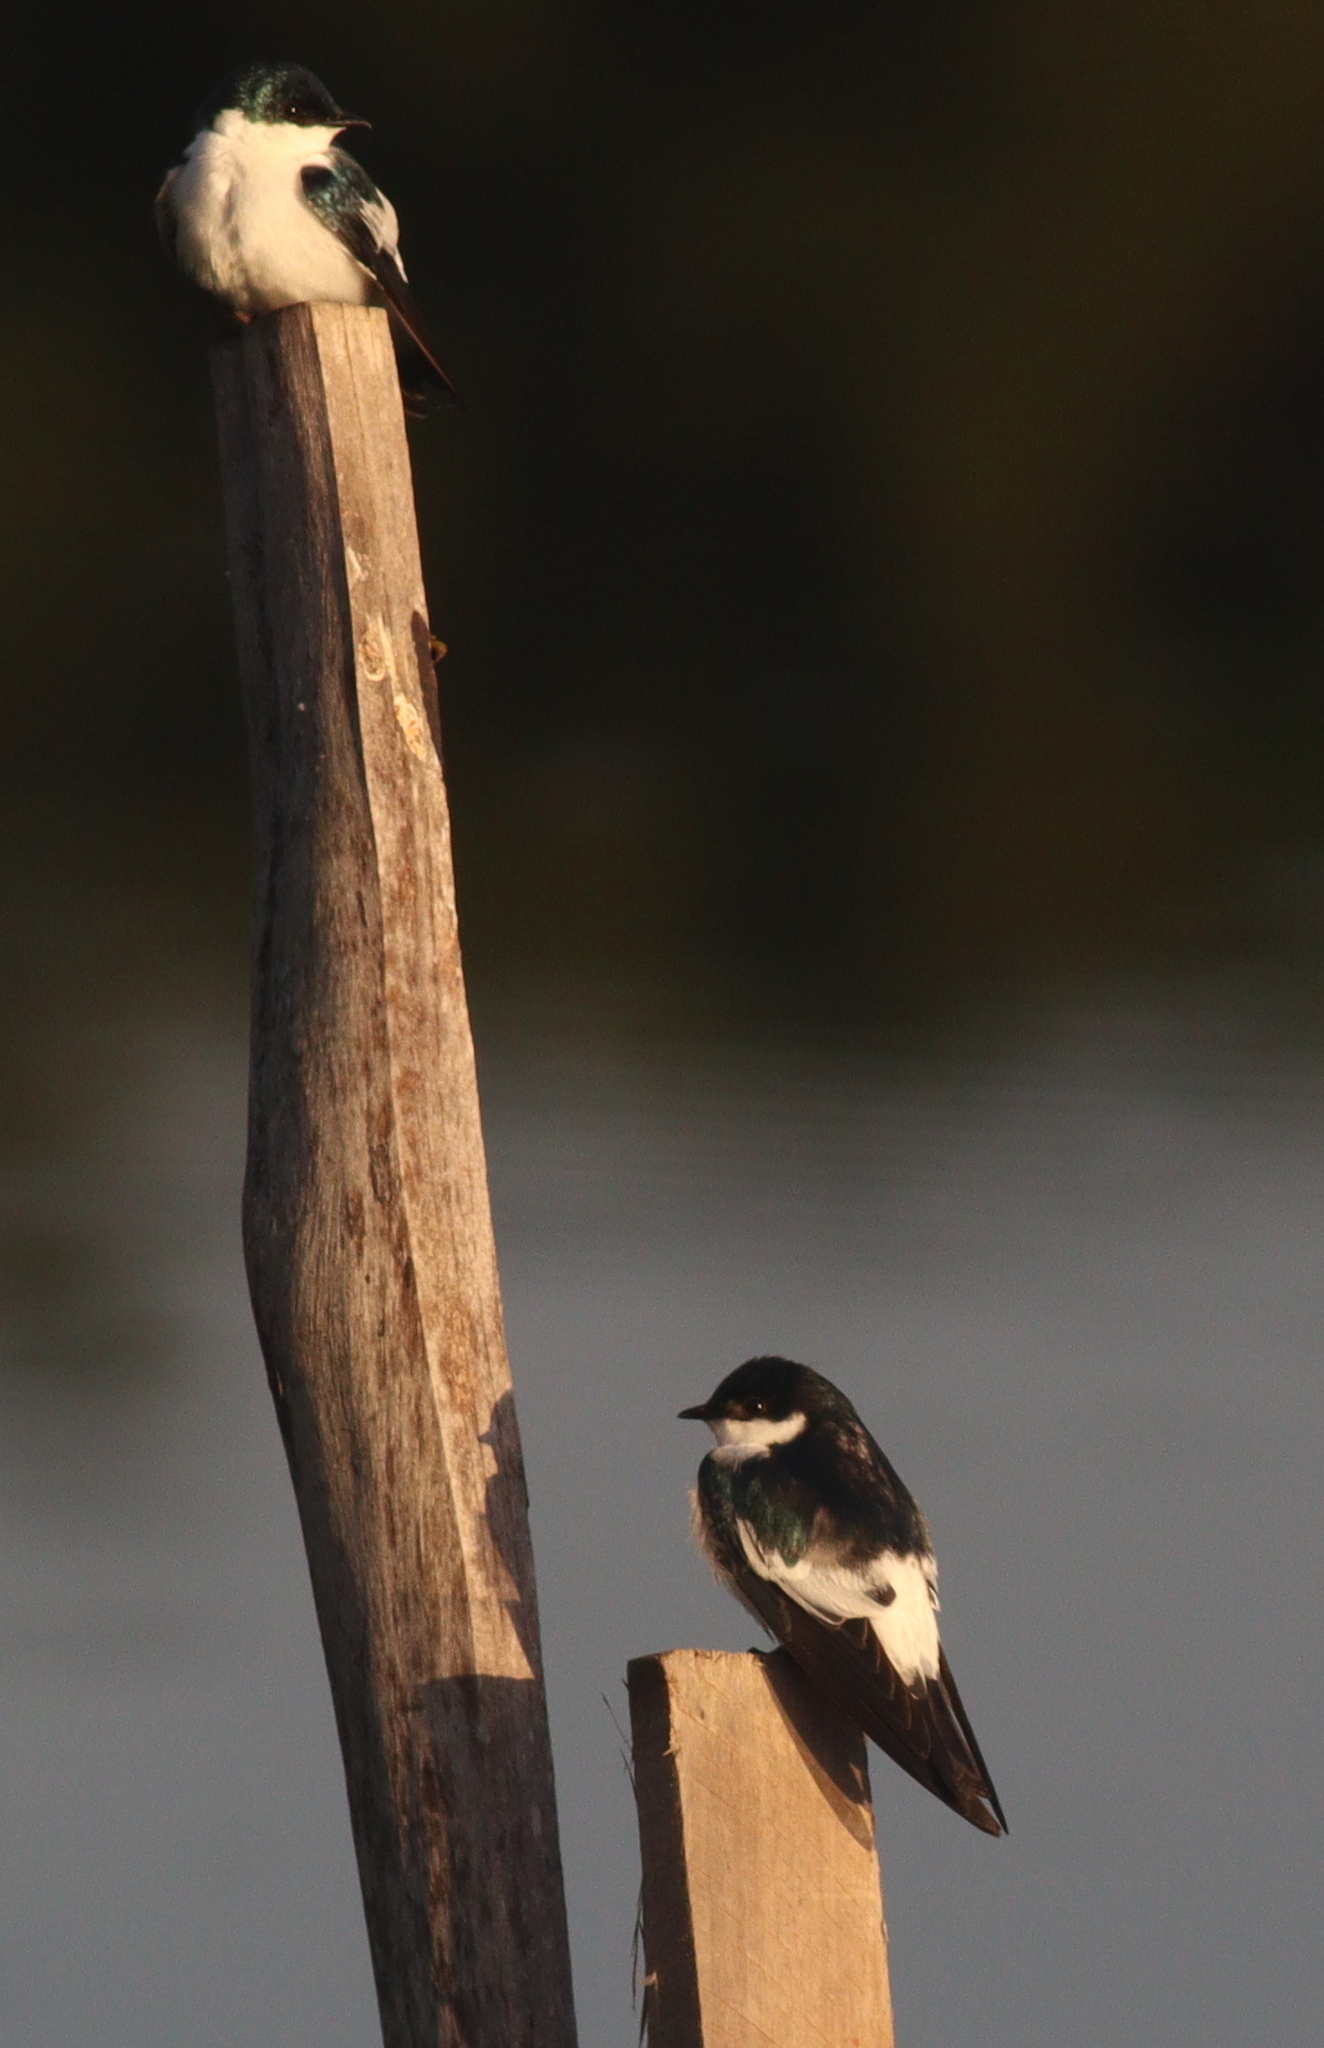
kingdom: Animalia
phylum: Chordata
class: Aves
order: Passeriformes
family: Hirundinidae
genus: Tachycineta
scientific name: Tachycineta albiventer
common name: White-winged swallow
